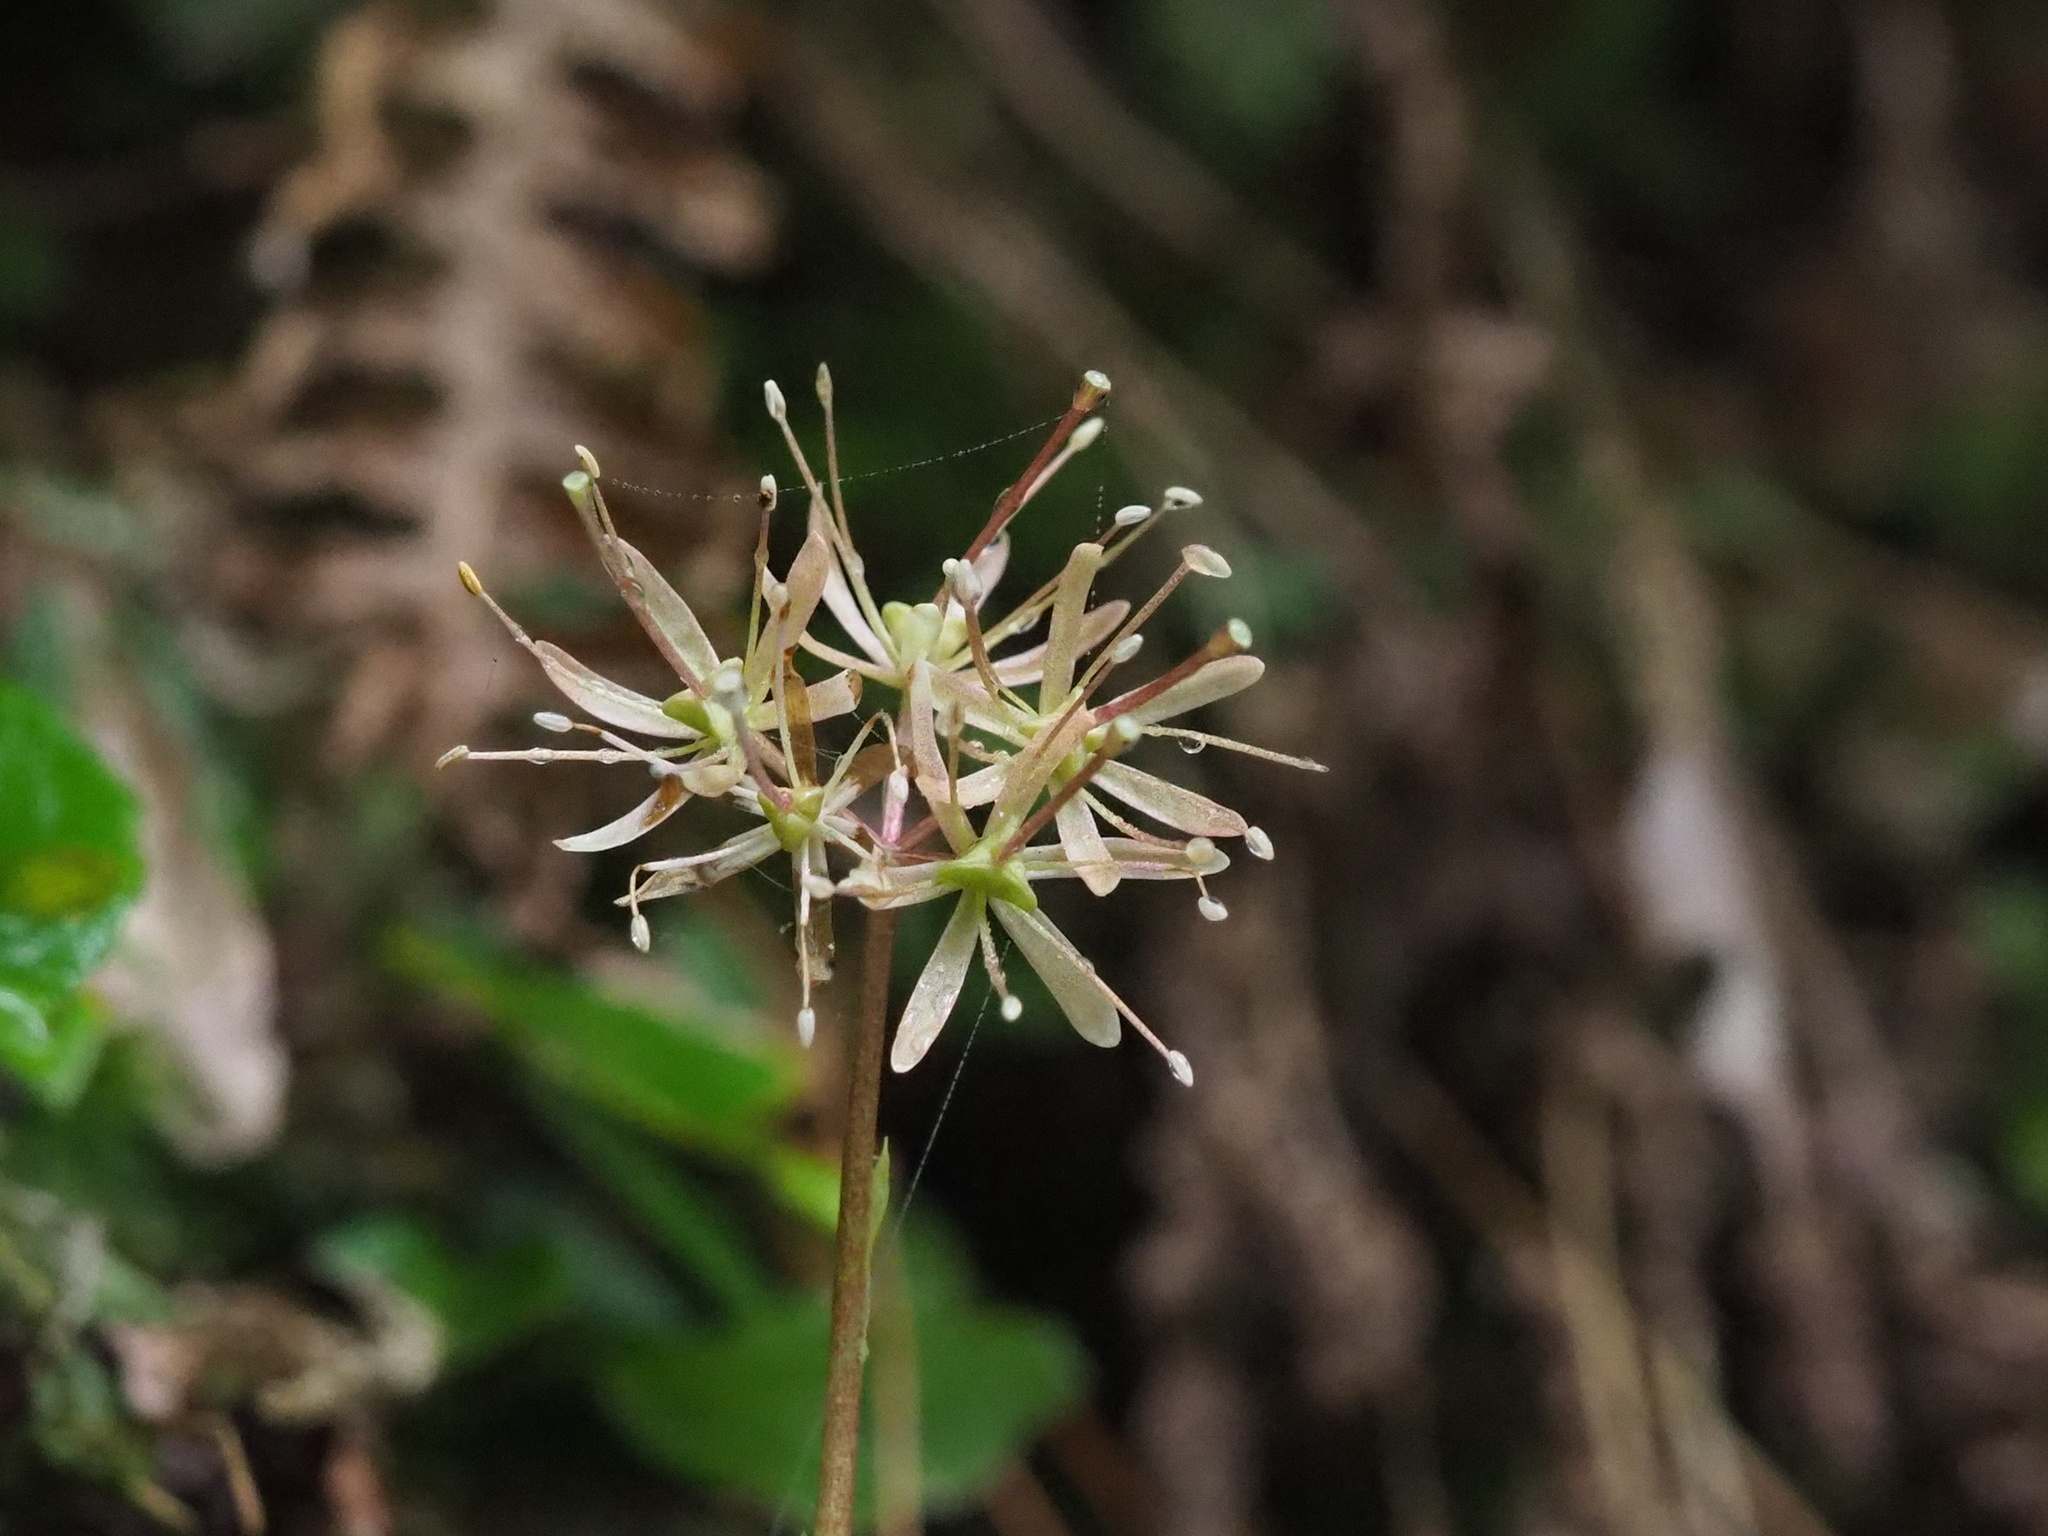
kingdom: Plantae
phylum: Tracheophyta
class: Liliopsida
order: Liliales
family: Melanthiaceae
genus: Helonias
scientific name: Helonias umbellata
